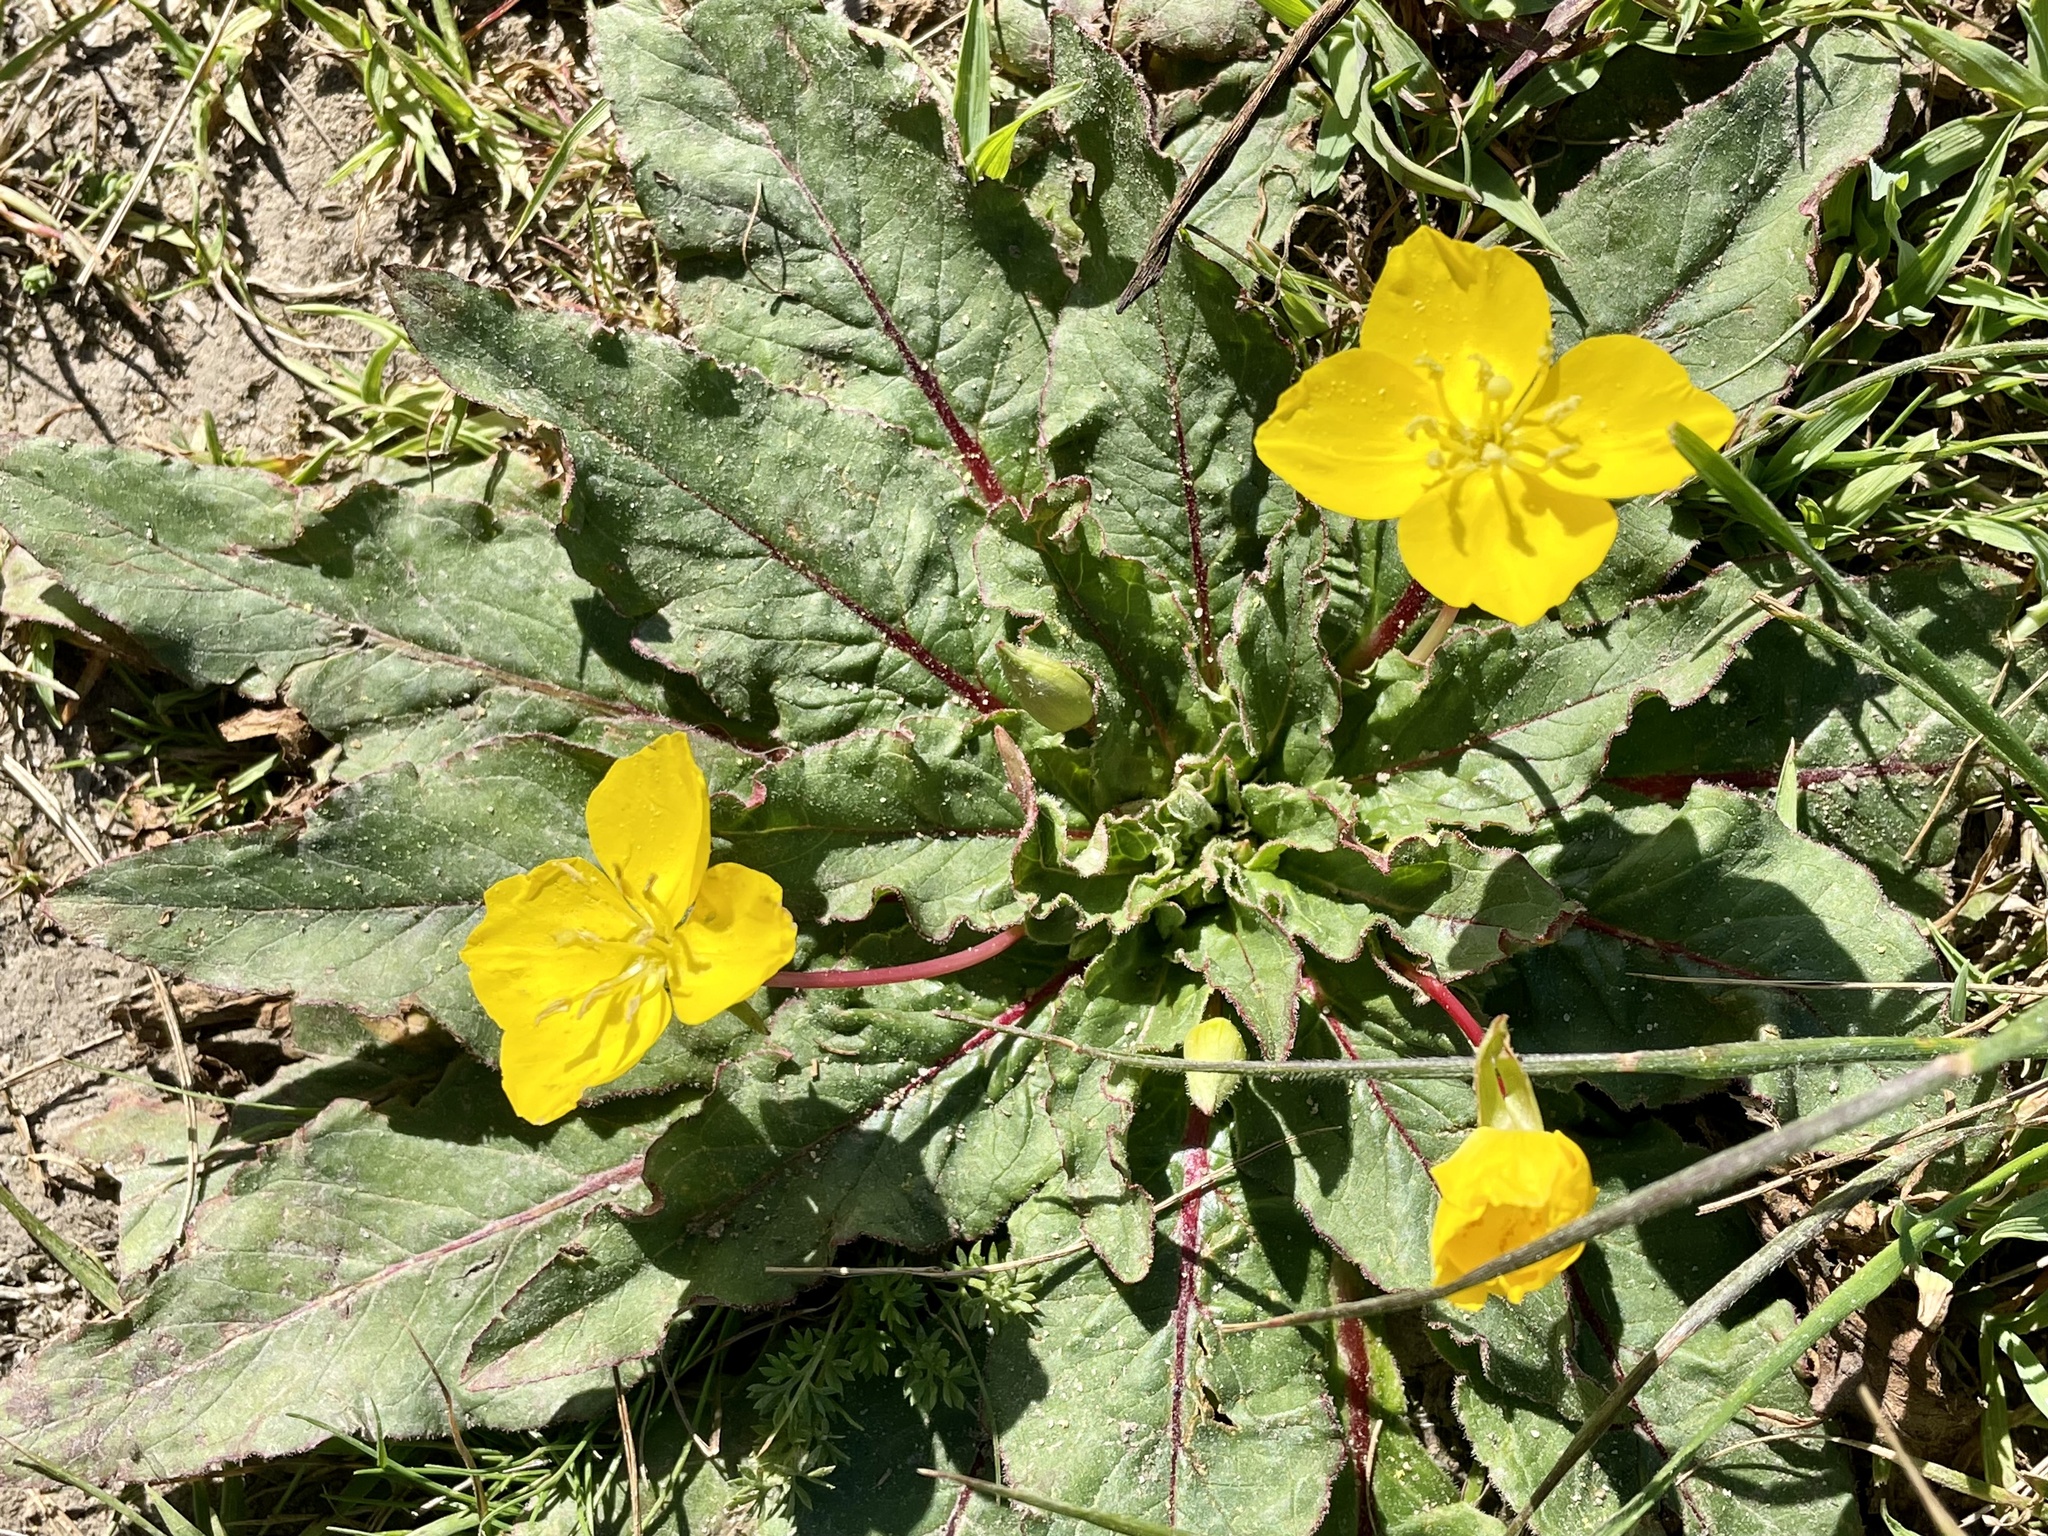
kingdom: Plantae
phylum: Tracheophyta
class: Magnoliopsida
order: Myrtales
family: Onagraceae
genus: Taraxia
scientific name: Taraxia ovata
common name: Goldeneggs
